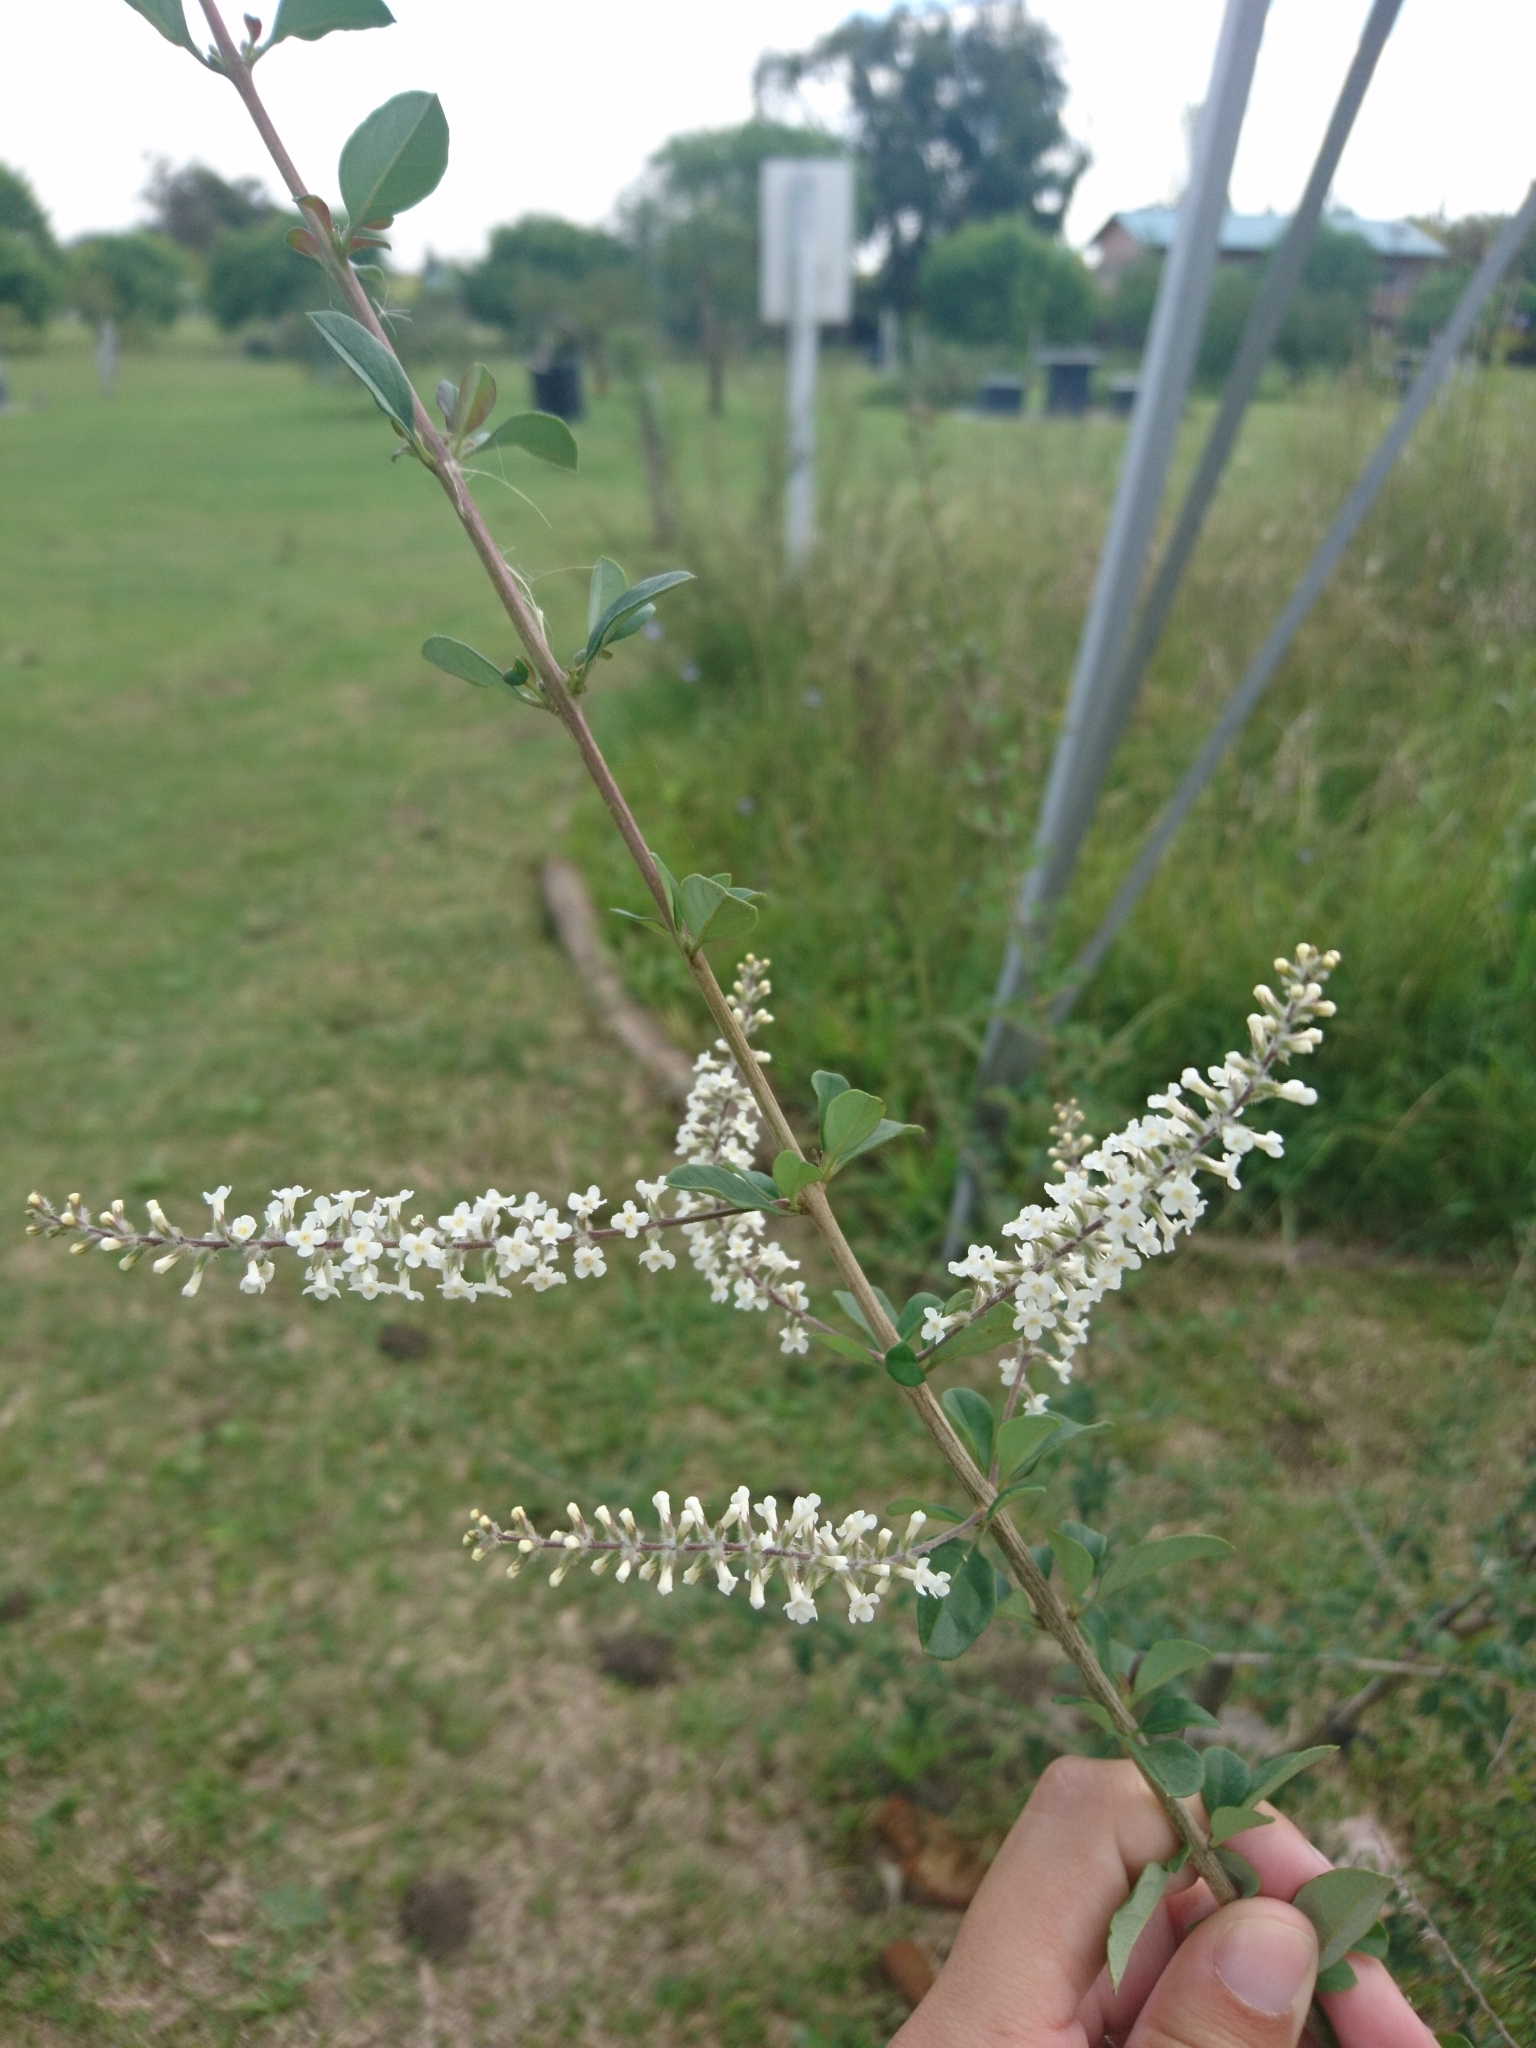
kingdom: Plantae
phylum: Tracheophyta
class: Magnoliopsida
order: Lamiales
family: Verbenaceae
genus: Aloysia
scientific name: Aloysia gratissima
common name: Common bee-brush
